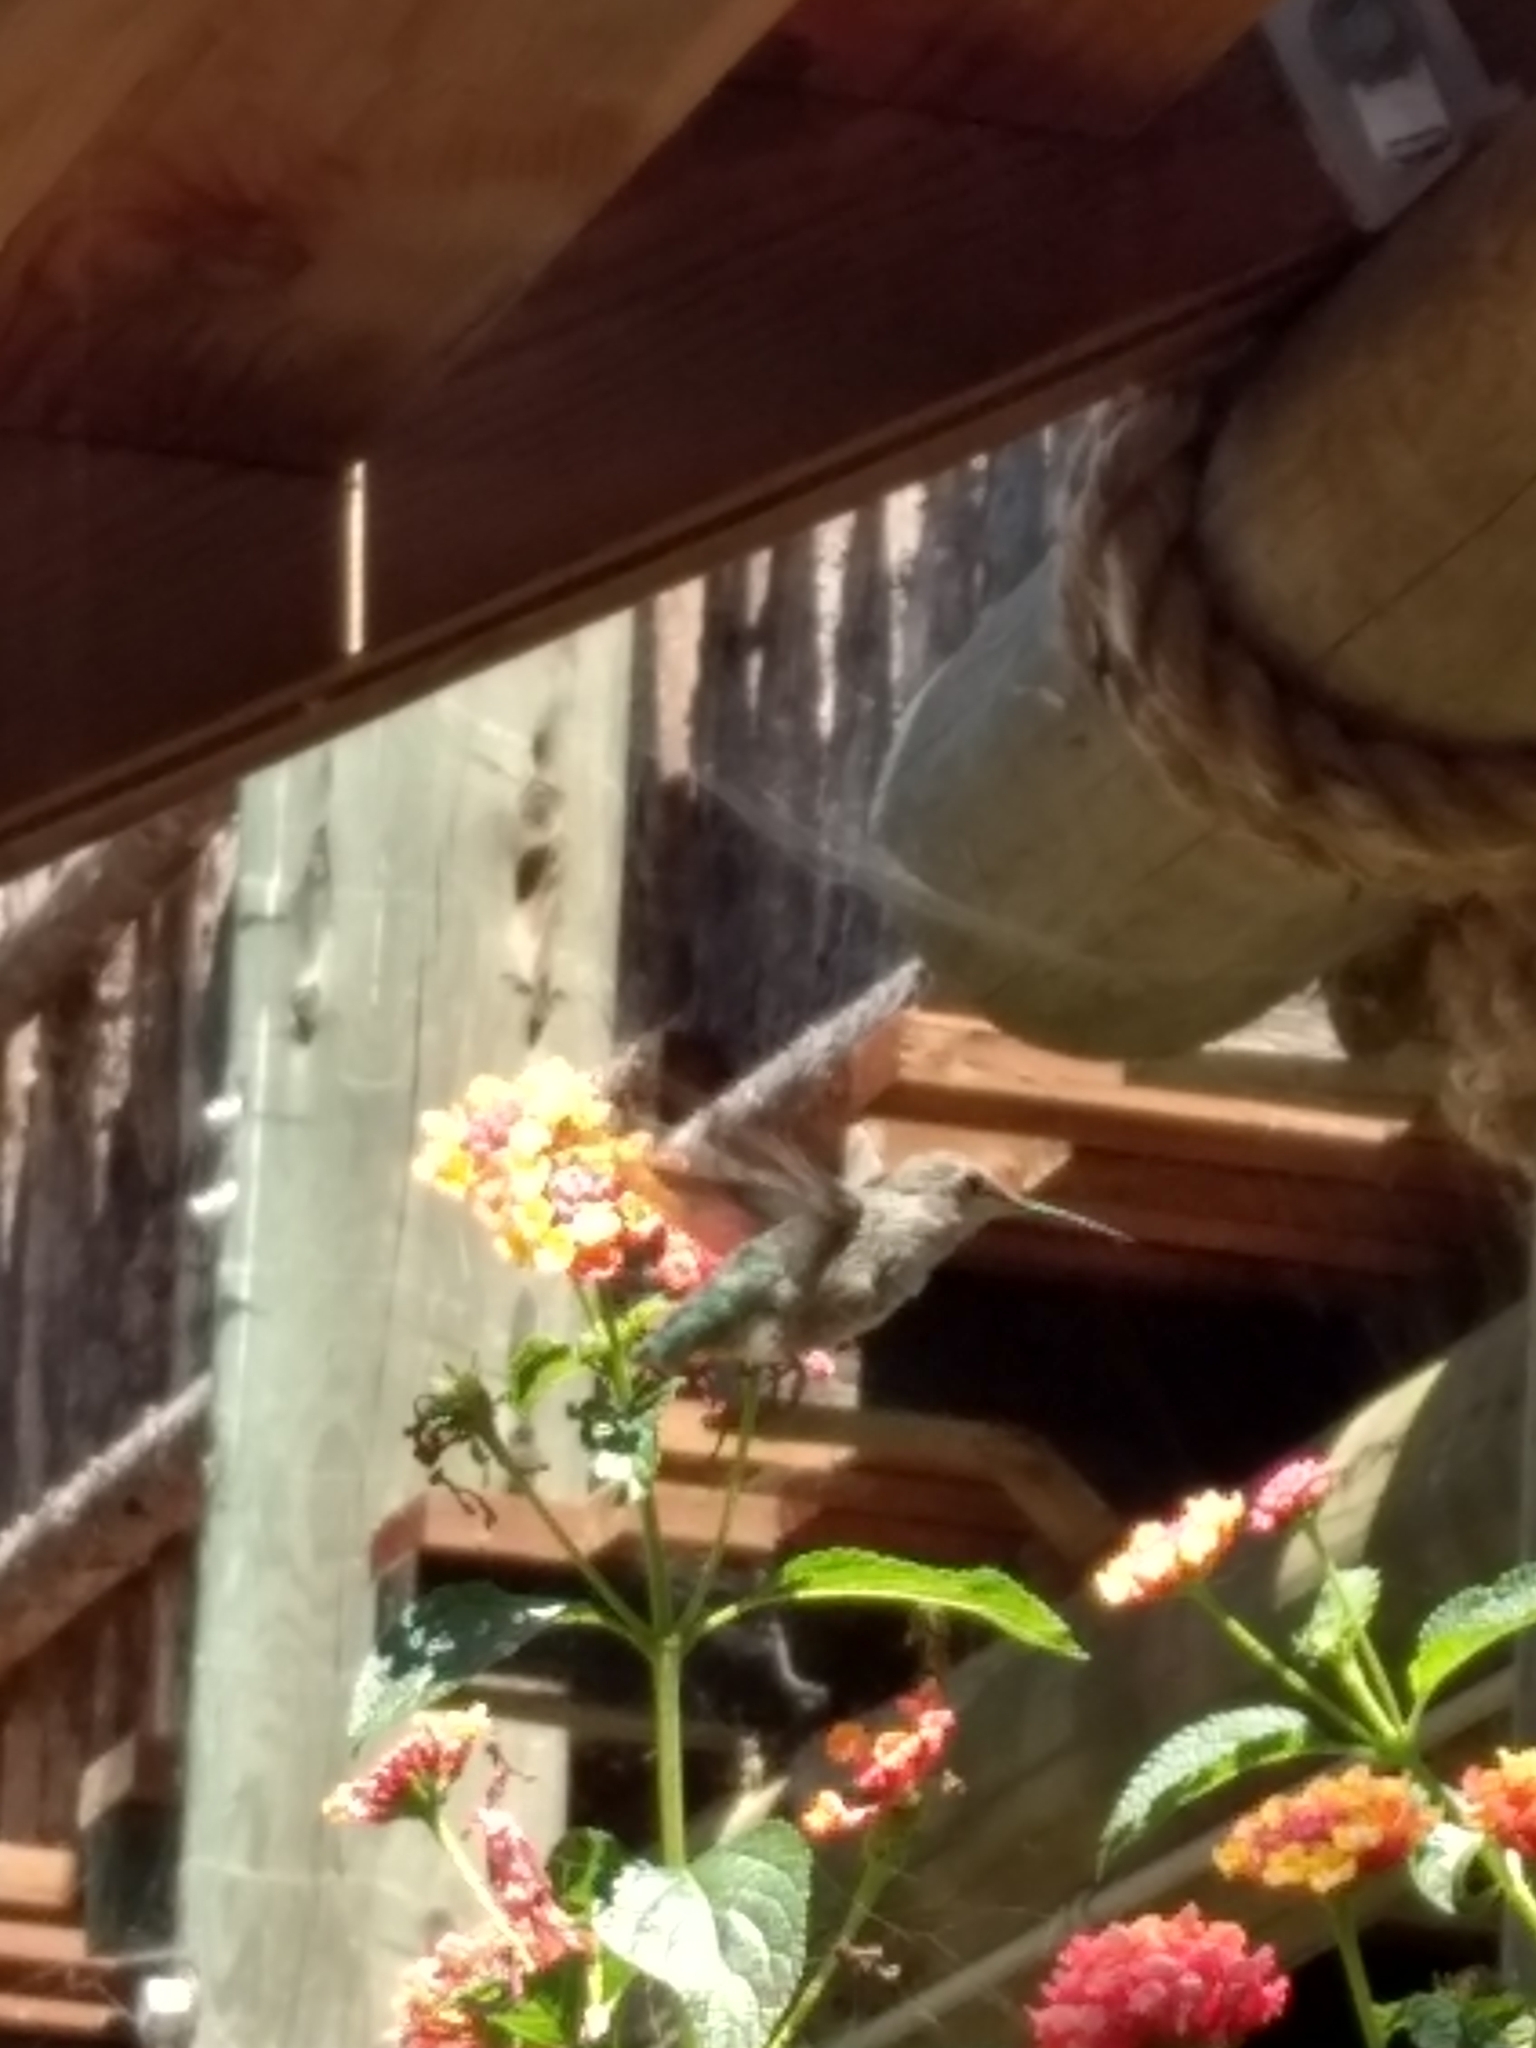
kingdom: Animalia
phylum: Chordata
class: Aves
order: Apodiformes
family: Trochilidae
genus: Calypte
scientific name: Calypte anna
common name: Anna's hummingbird
